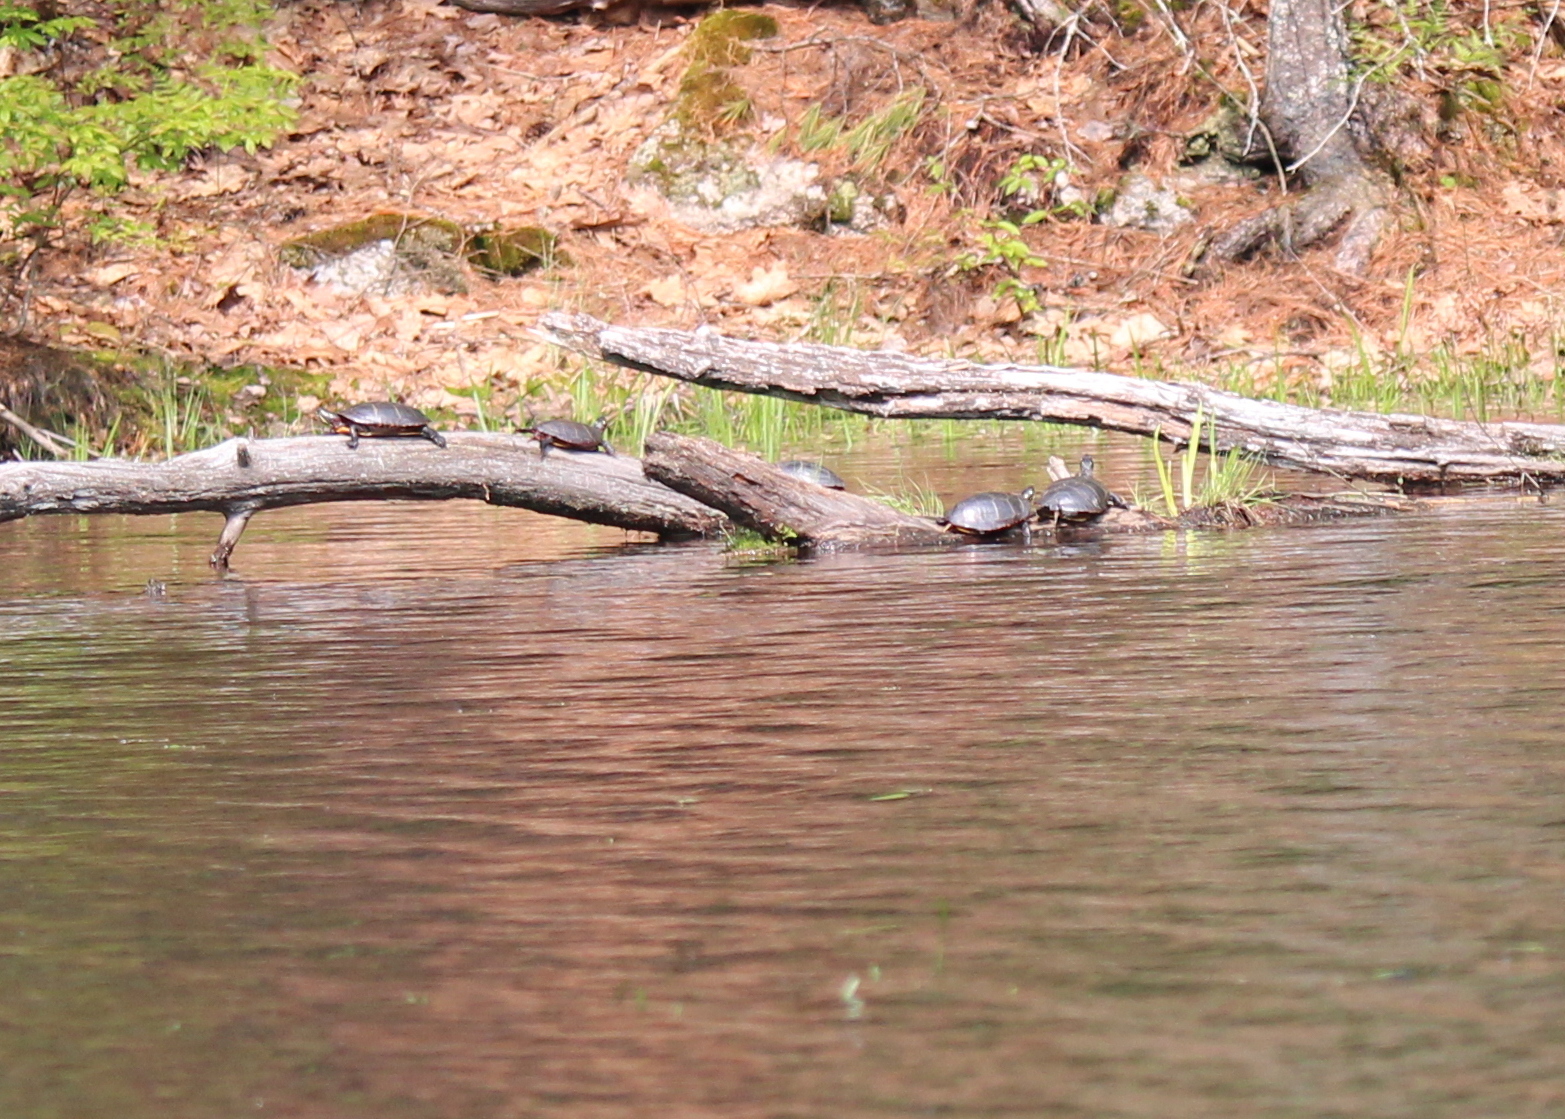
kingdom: Animalia
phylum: Chordata
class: Testudines
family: Emydidae
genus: Chrysemys
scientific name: Chrysemys picta
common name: Painted turtle
